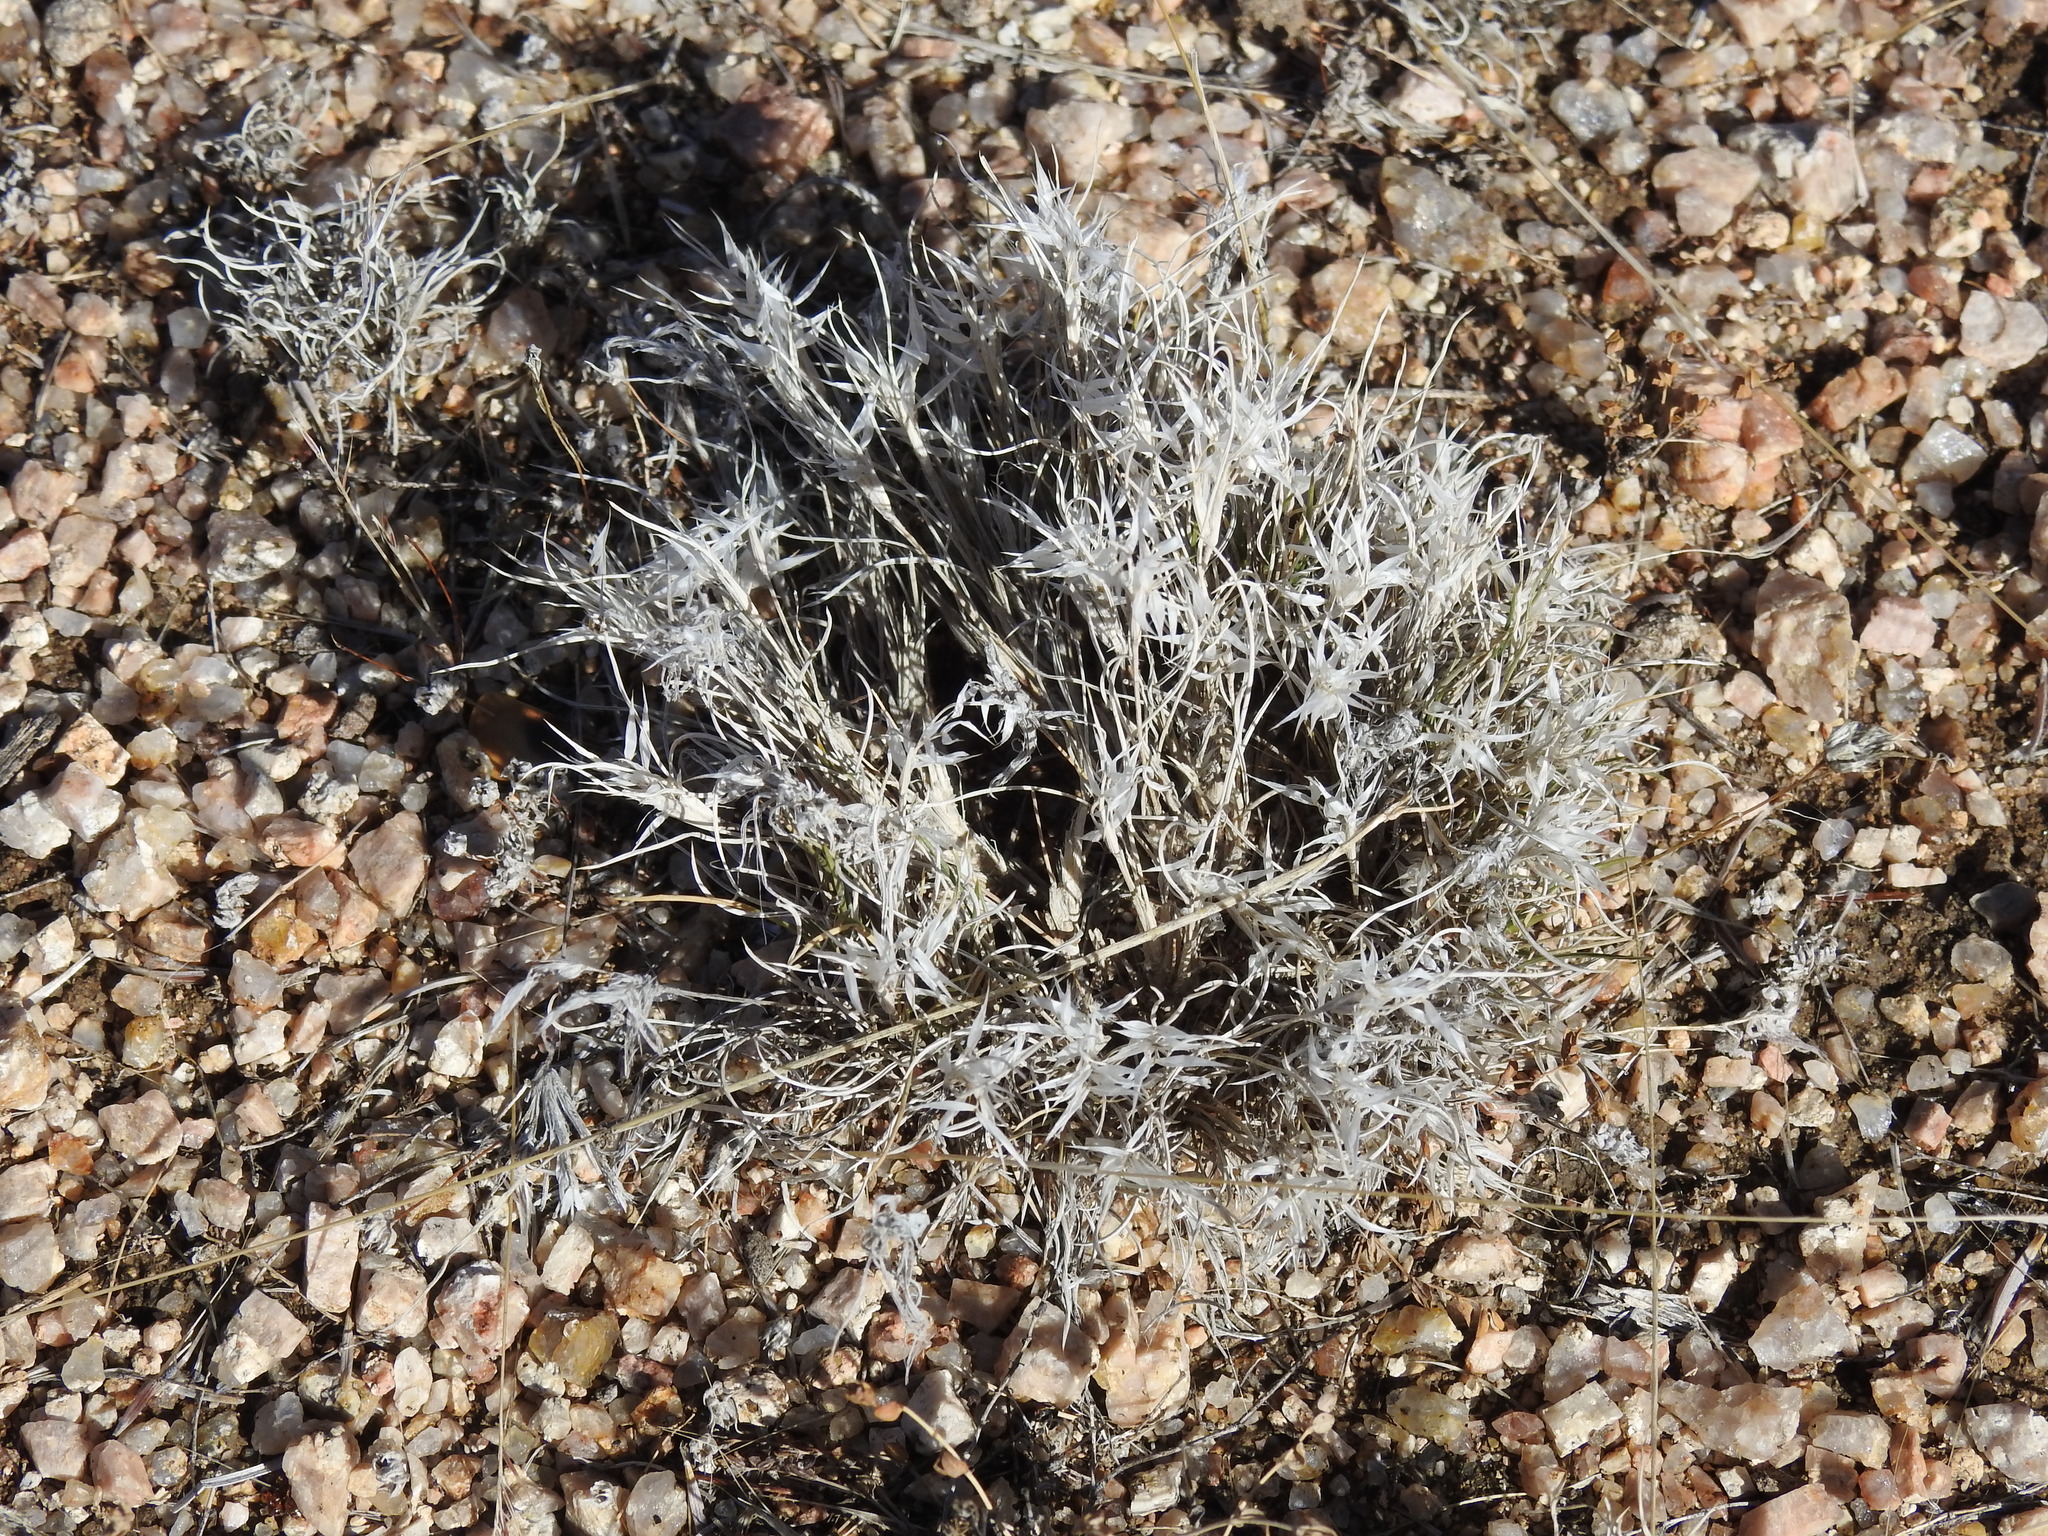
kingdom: Plantae
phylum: Tracheophyta
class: Liliopsida
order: Poales
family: Poaceae
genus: Dasyochloa
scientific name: Dasyochloa pulchella
